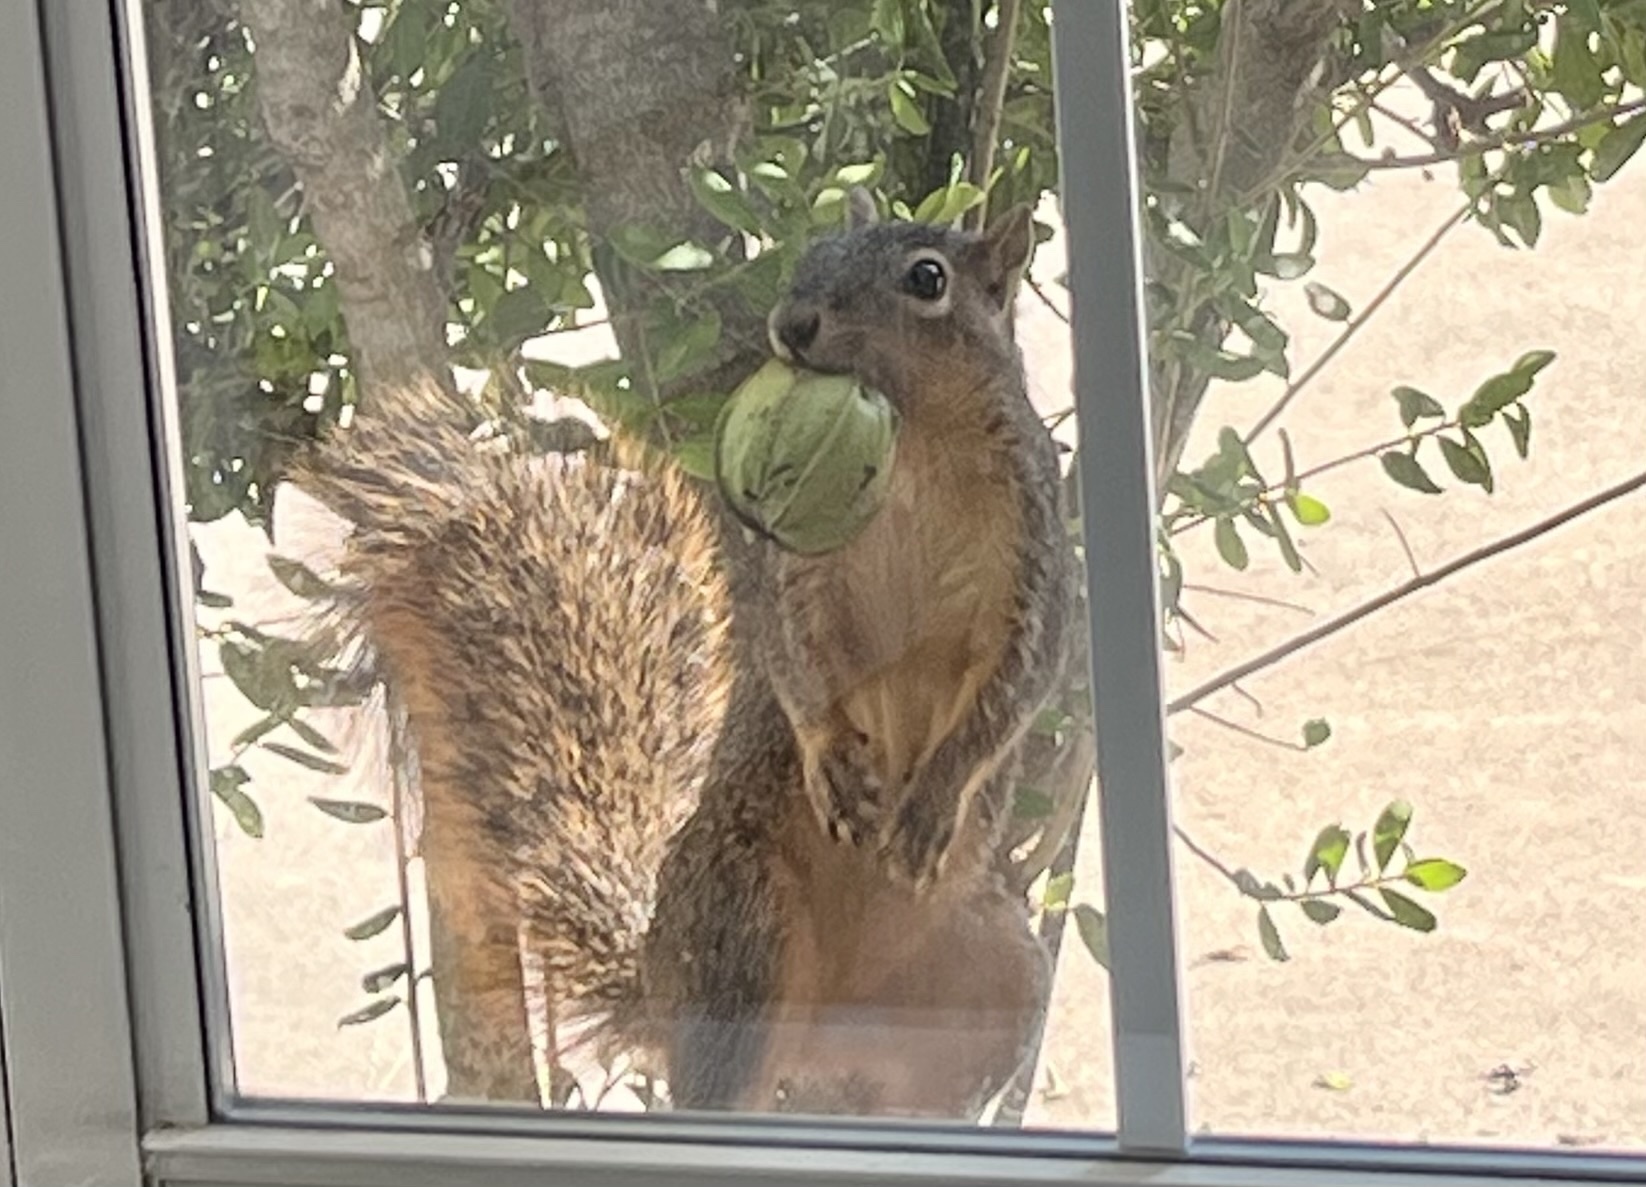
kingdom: Animalia
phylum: Chordata
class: Mammalia
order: Rodentia
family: Sciuridae
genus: Sciurus
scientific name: Sciurus niger
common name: Fox squirrel
